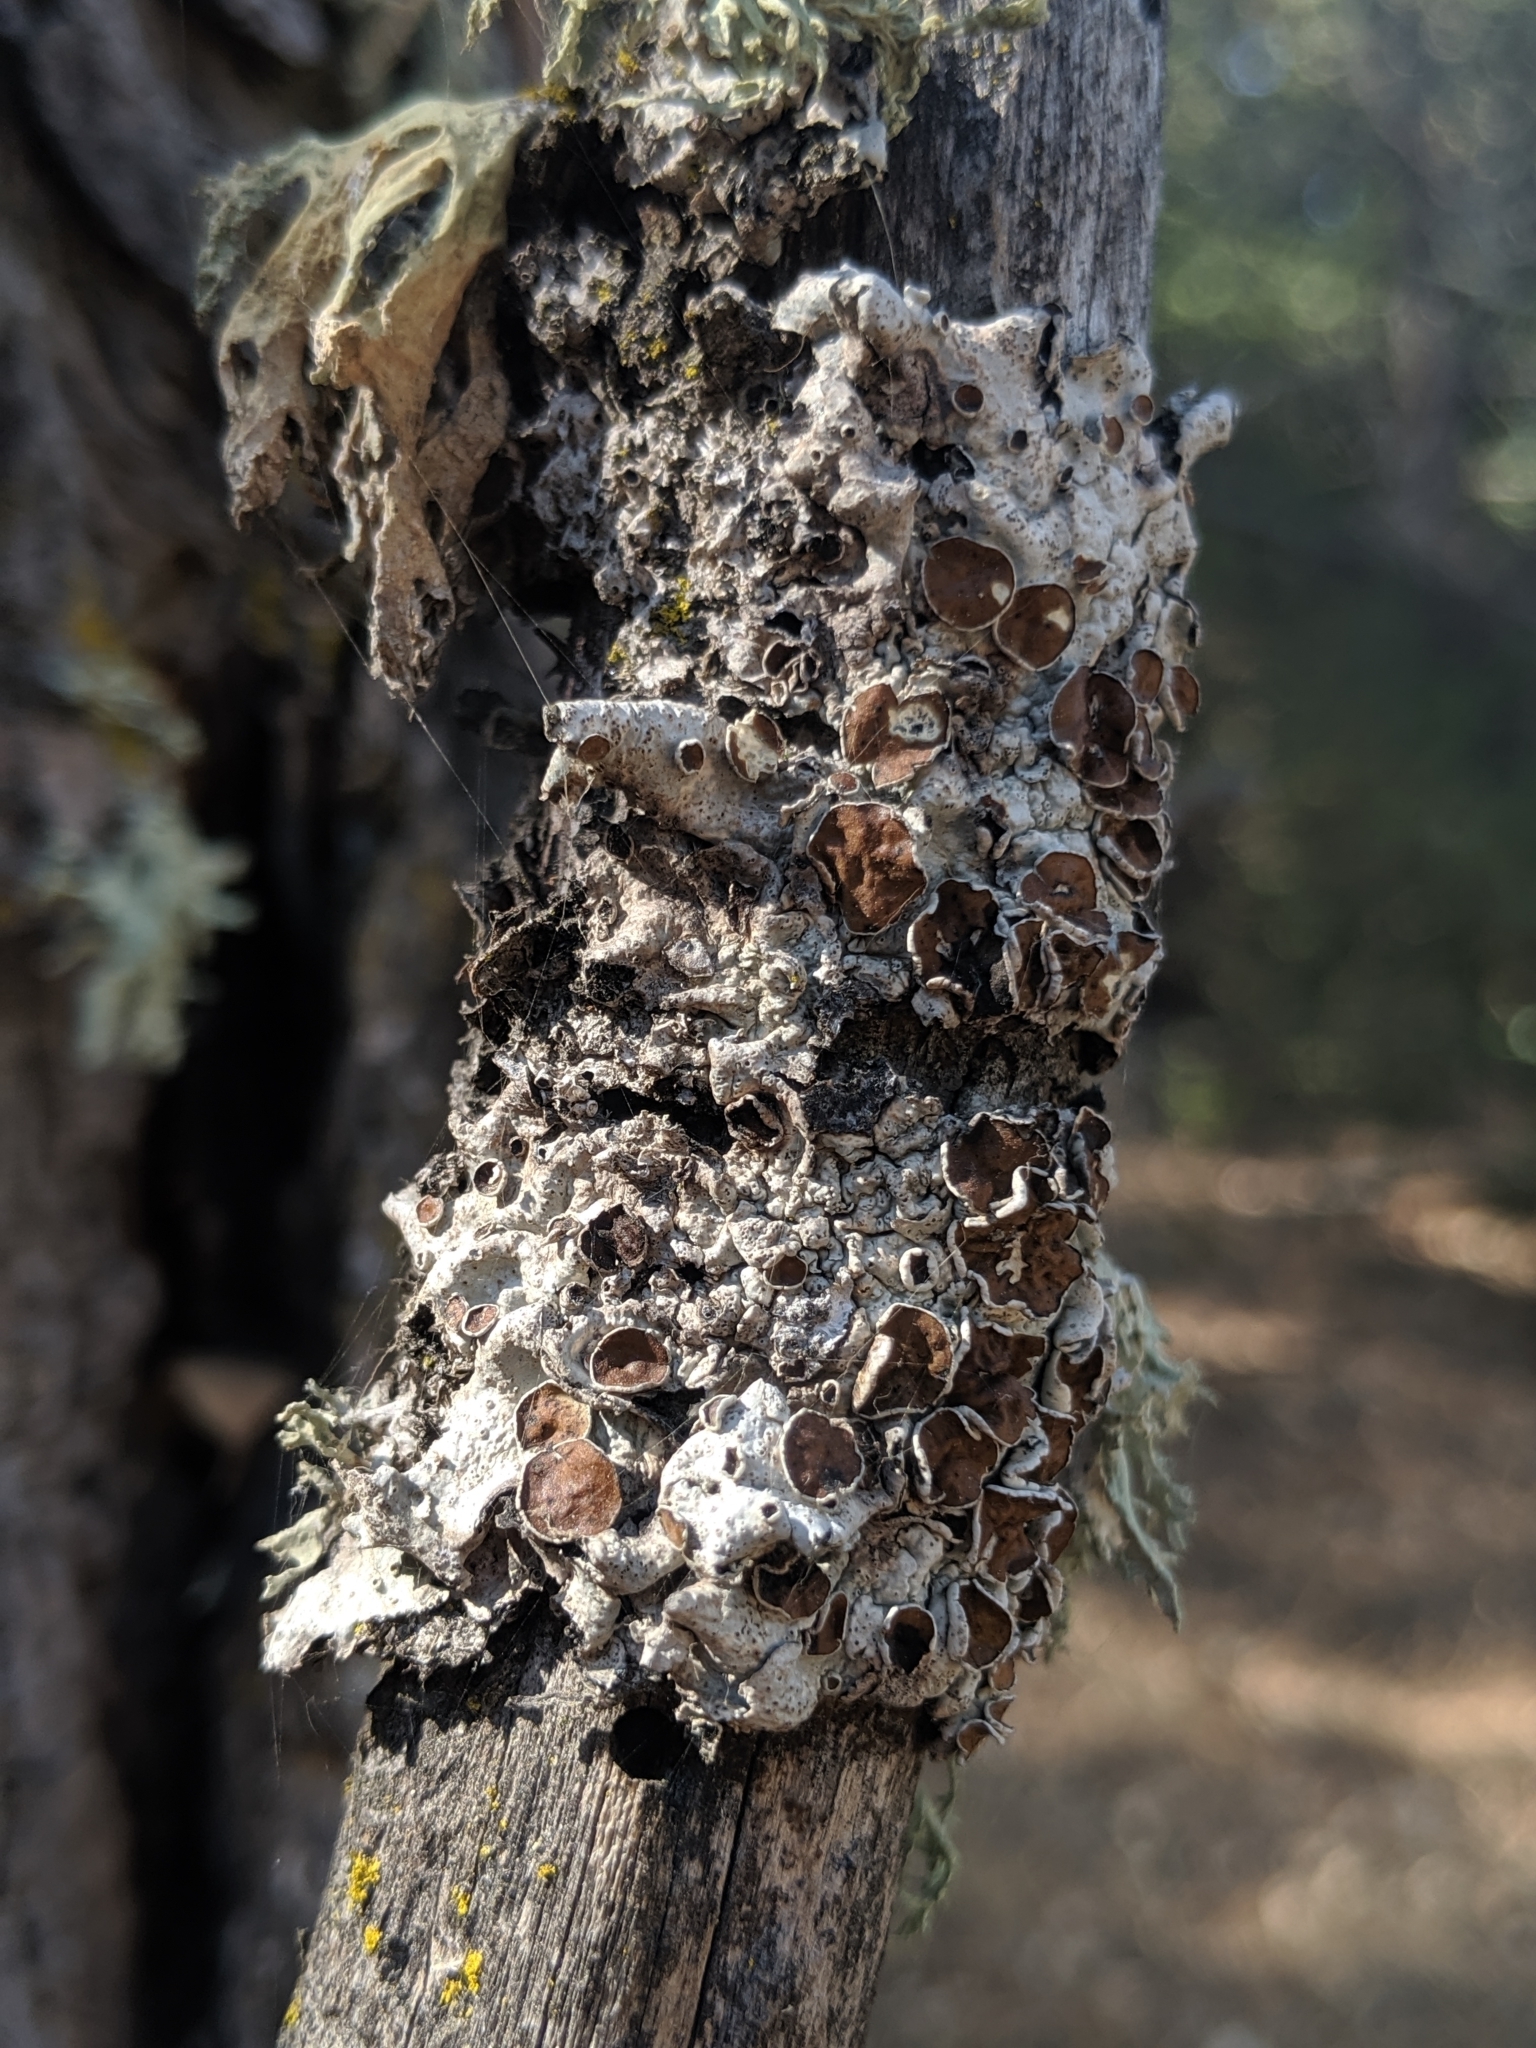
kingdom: Fungi
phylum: Ascomycota
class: Lecanoromycetes
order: Lecanorales
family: Parmeliaceae
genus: Parmelina
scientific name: Parmelina coleae
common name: Fringed shield lichen
